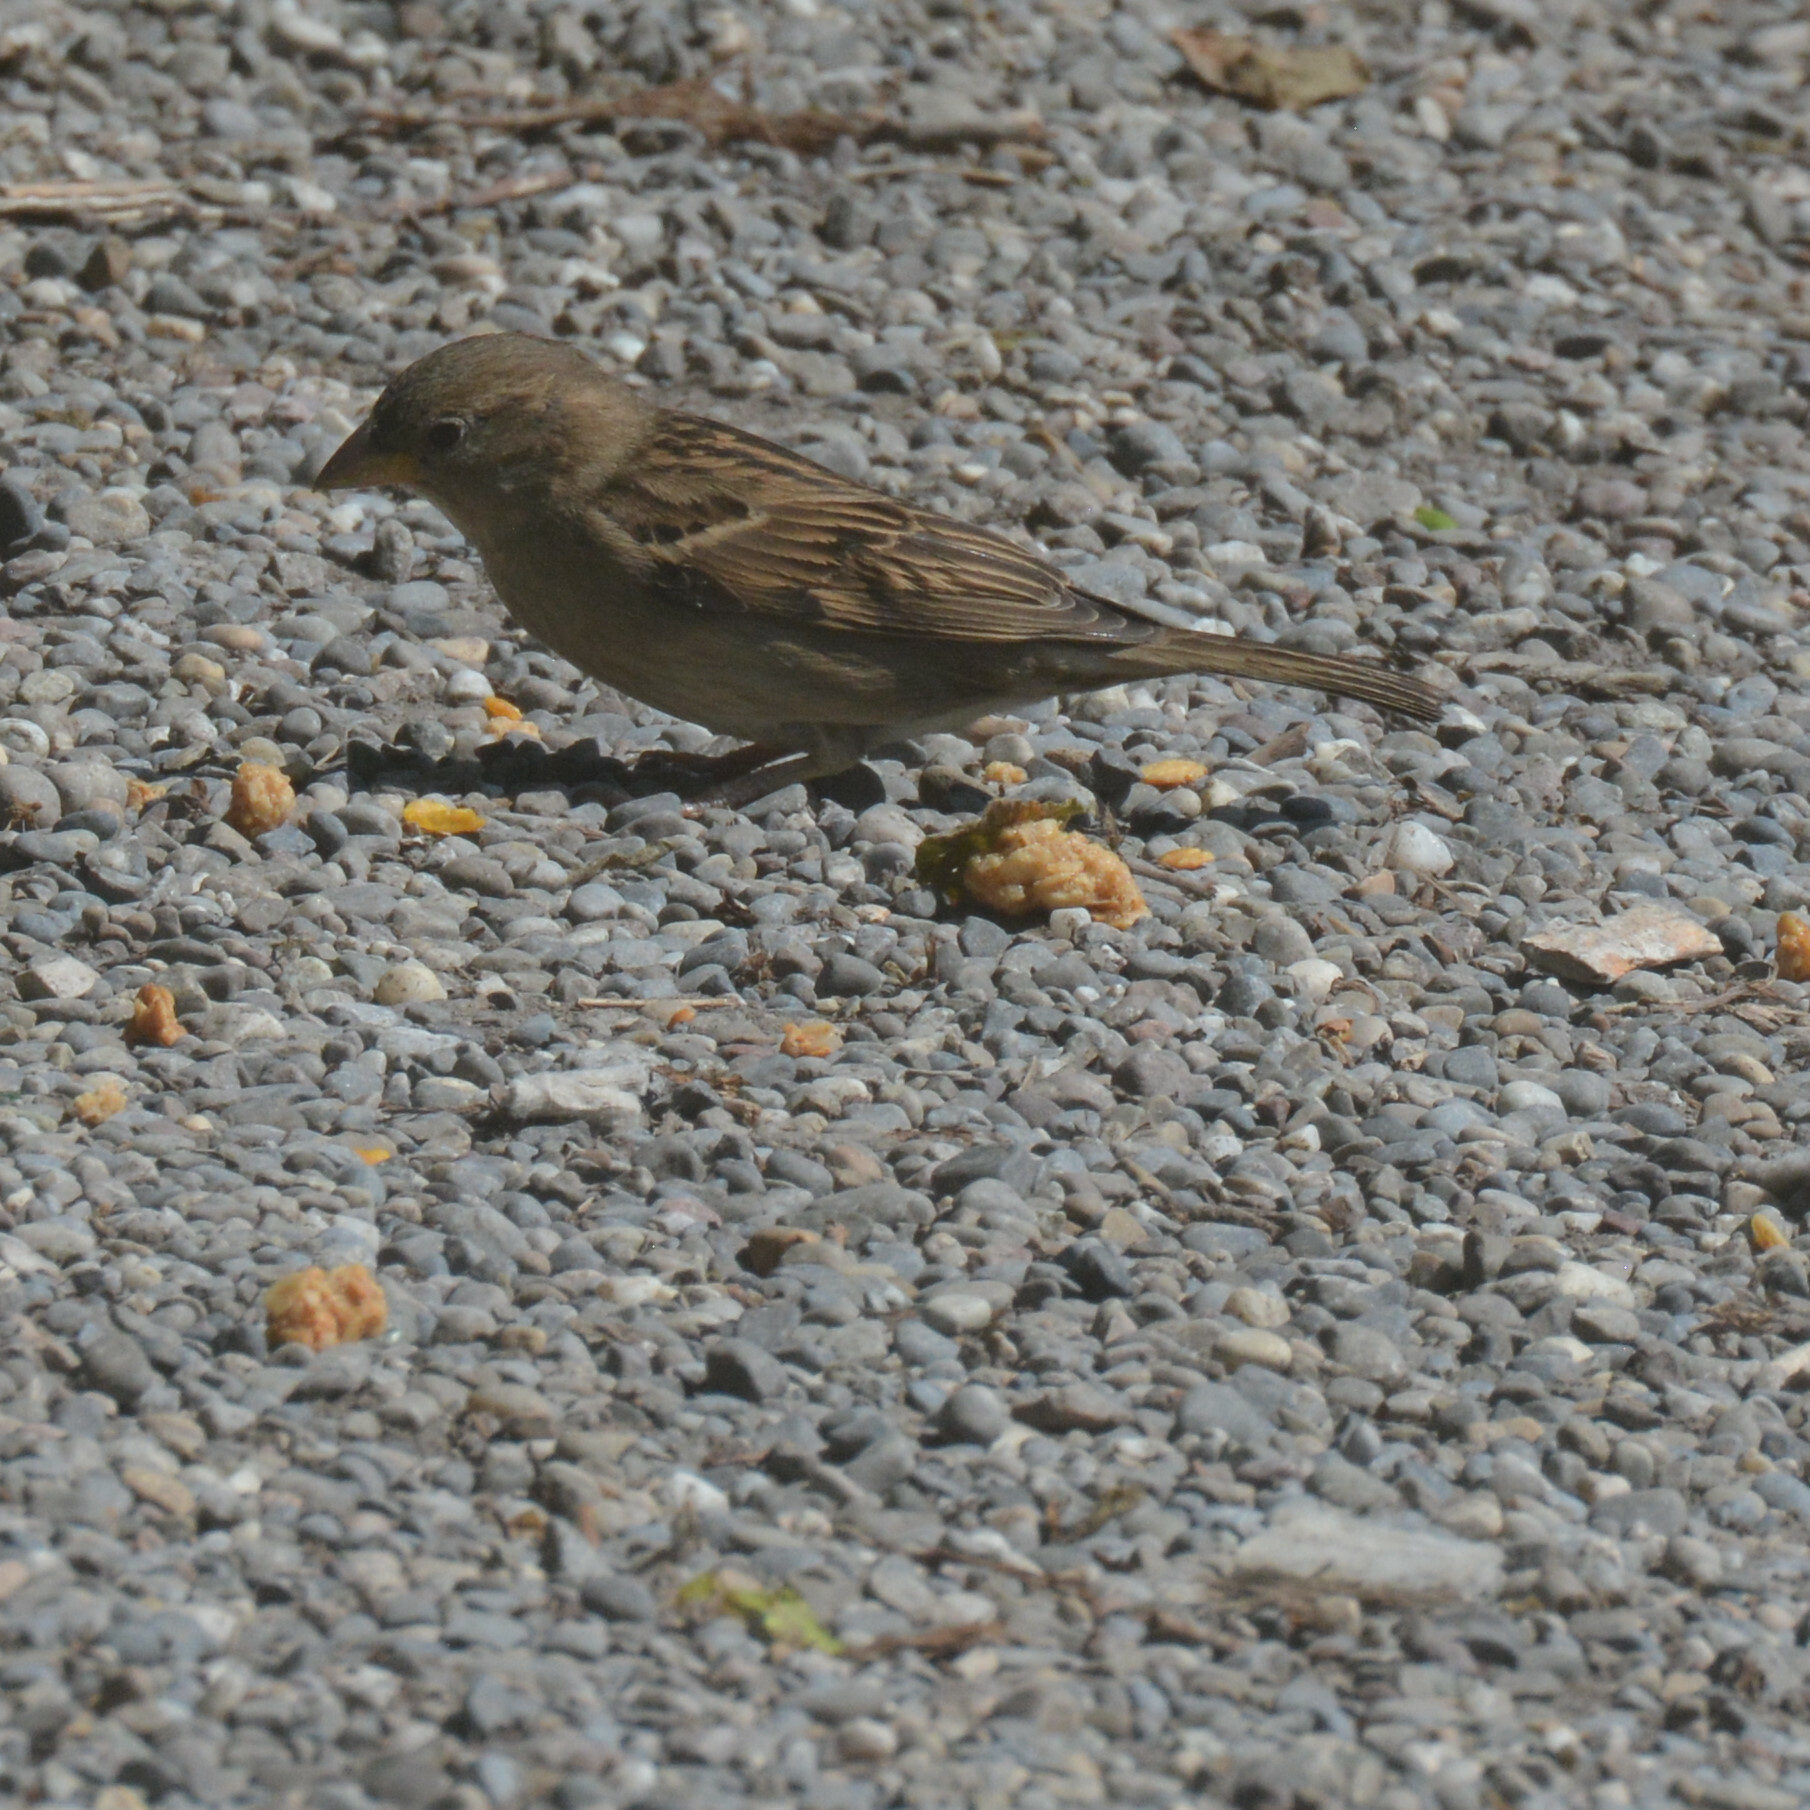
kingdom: Animalia
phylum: Chordata
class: Aves
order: Passeriformes
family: Passeridae
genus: Passer
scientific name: Passer domesticus
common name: House sparrow
